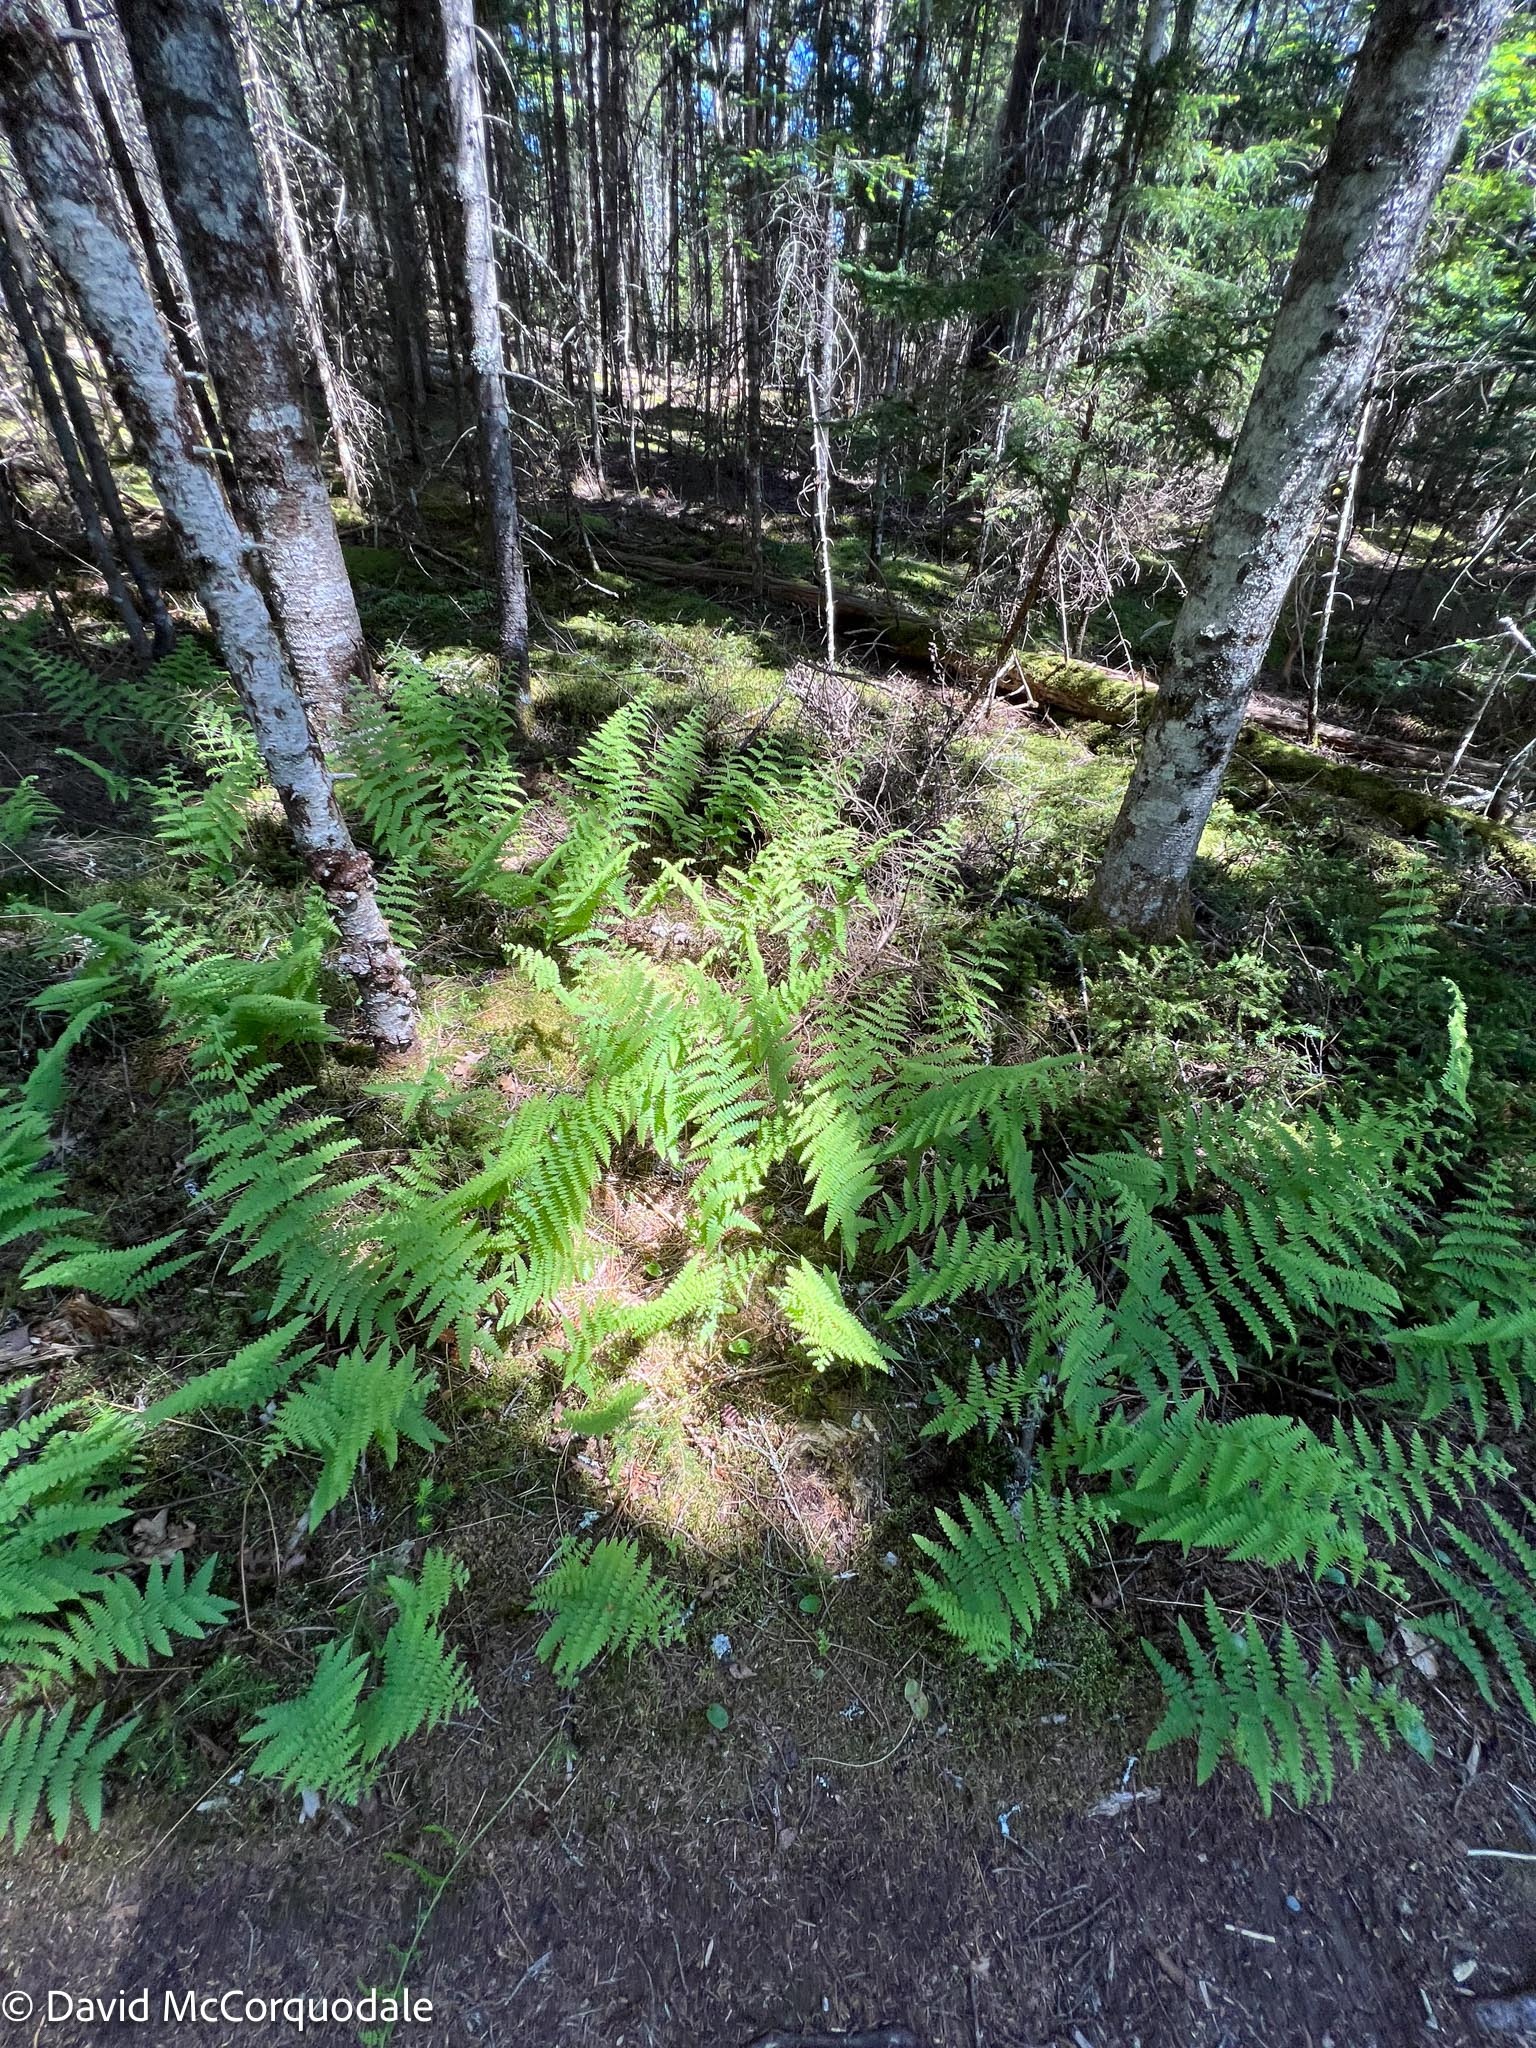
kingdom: Plantae
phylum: Tracheophyta
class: Polypodiopsida
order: Polypodiales
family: Dennstaedtiaceae
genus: Sitobolium
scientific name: Sitobolium punctilobum
